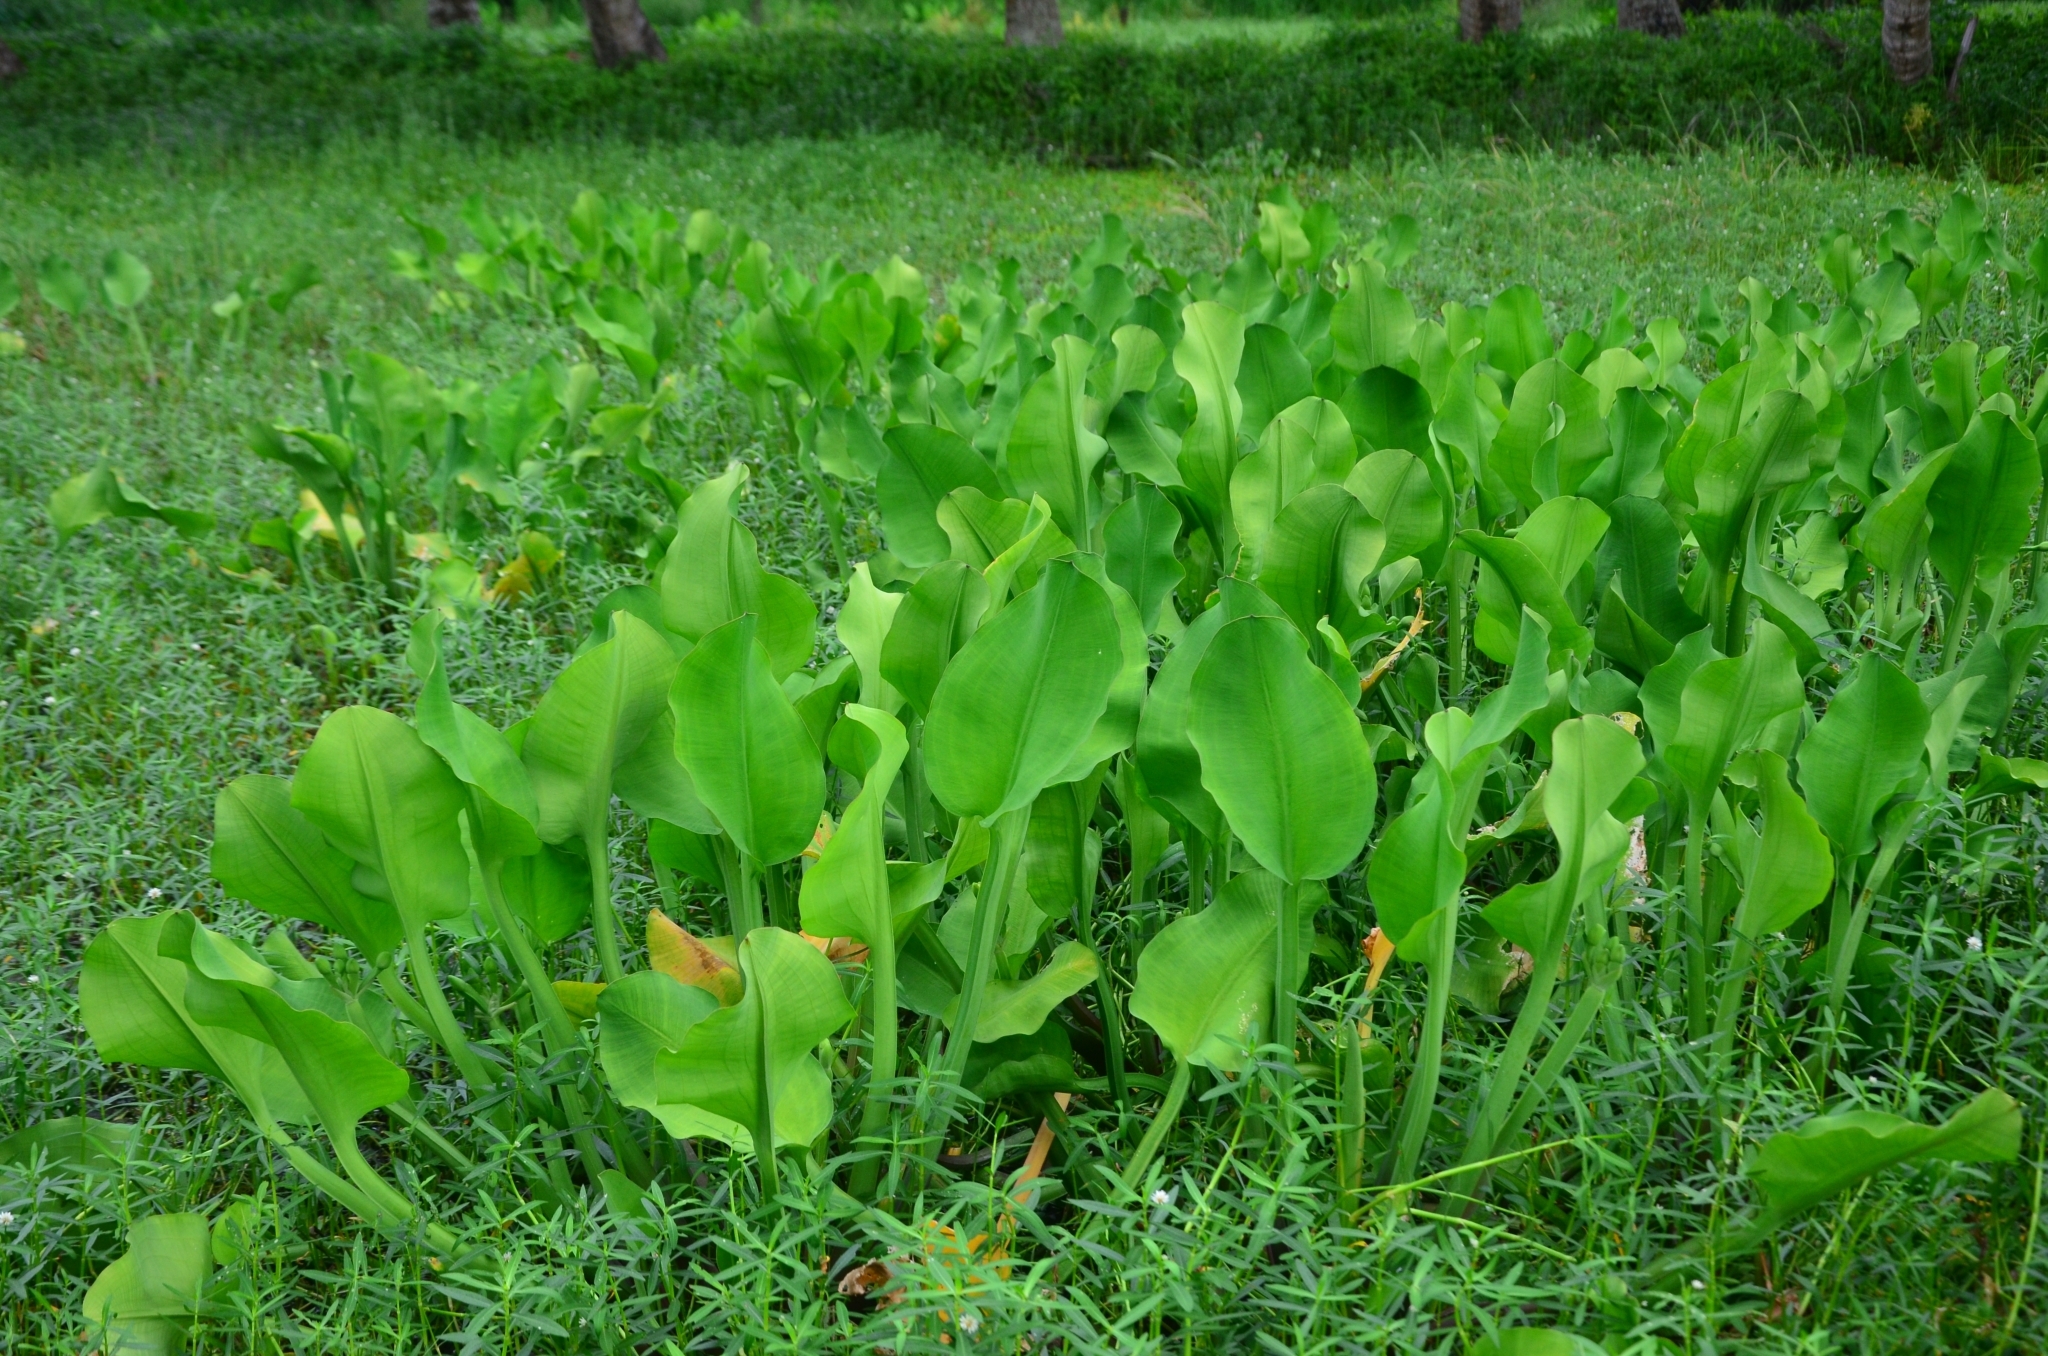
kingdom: Plantae
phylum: Tracheophyta
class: Liliopsida
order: Alismatales
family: Alismataceae
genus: Limnocharis
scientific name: Limnocharis flava
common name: Sawah-flower-rush
